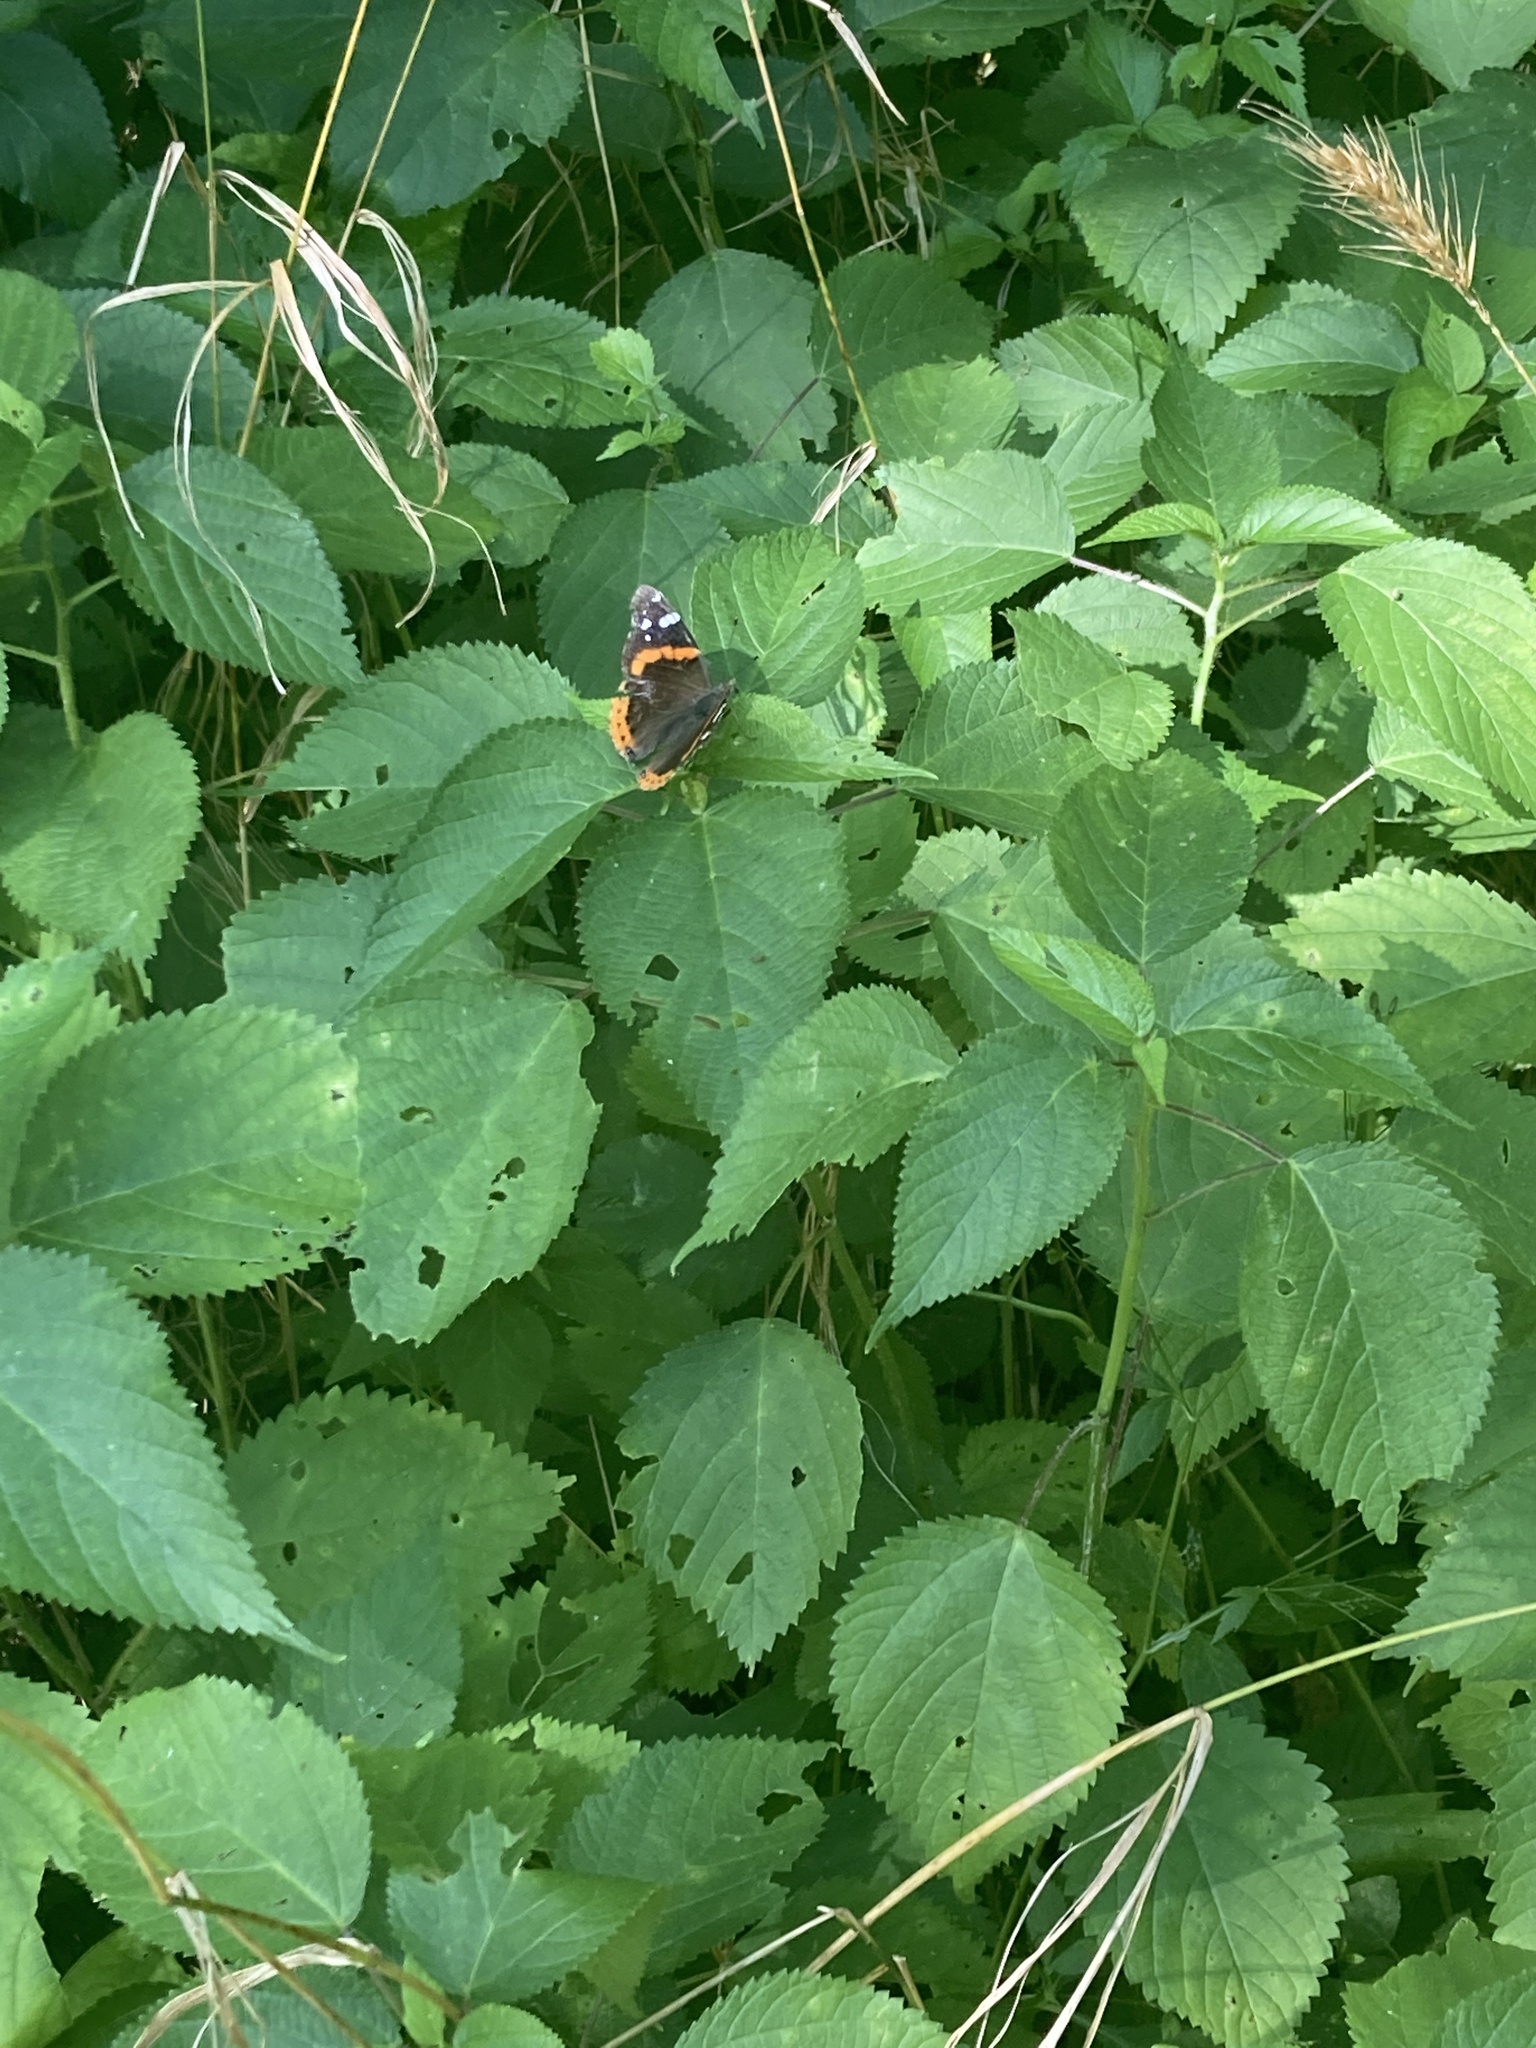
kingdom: Animalia
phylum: Arthropoda
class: Insecta
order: Lepidoptera
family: Nymphalidae
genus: Vanessa
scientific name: Vanessa atalanta
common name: Red admiral
